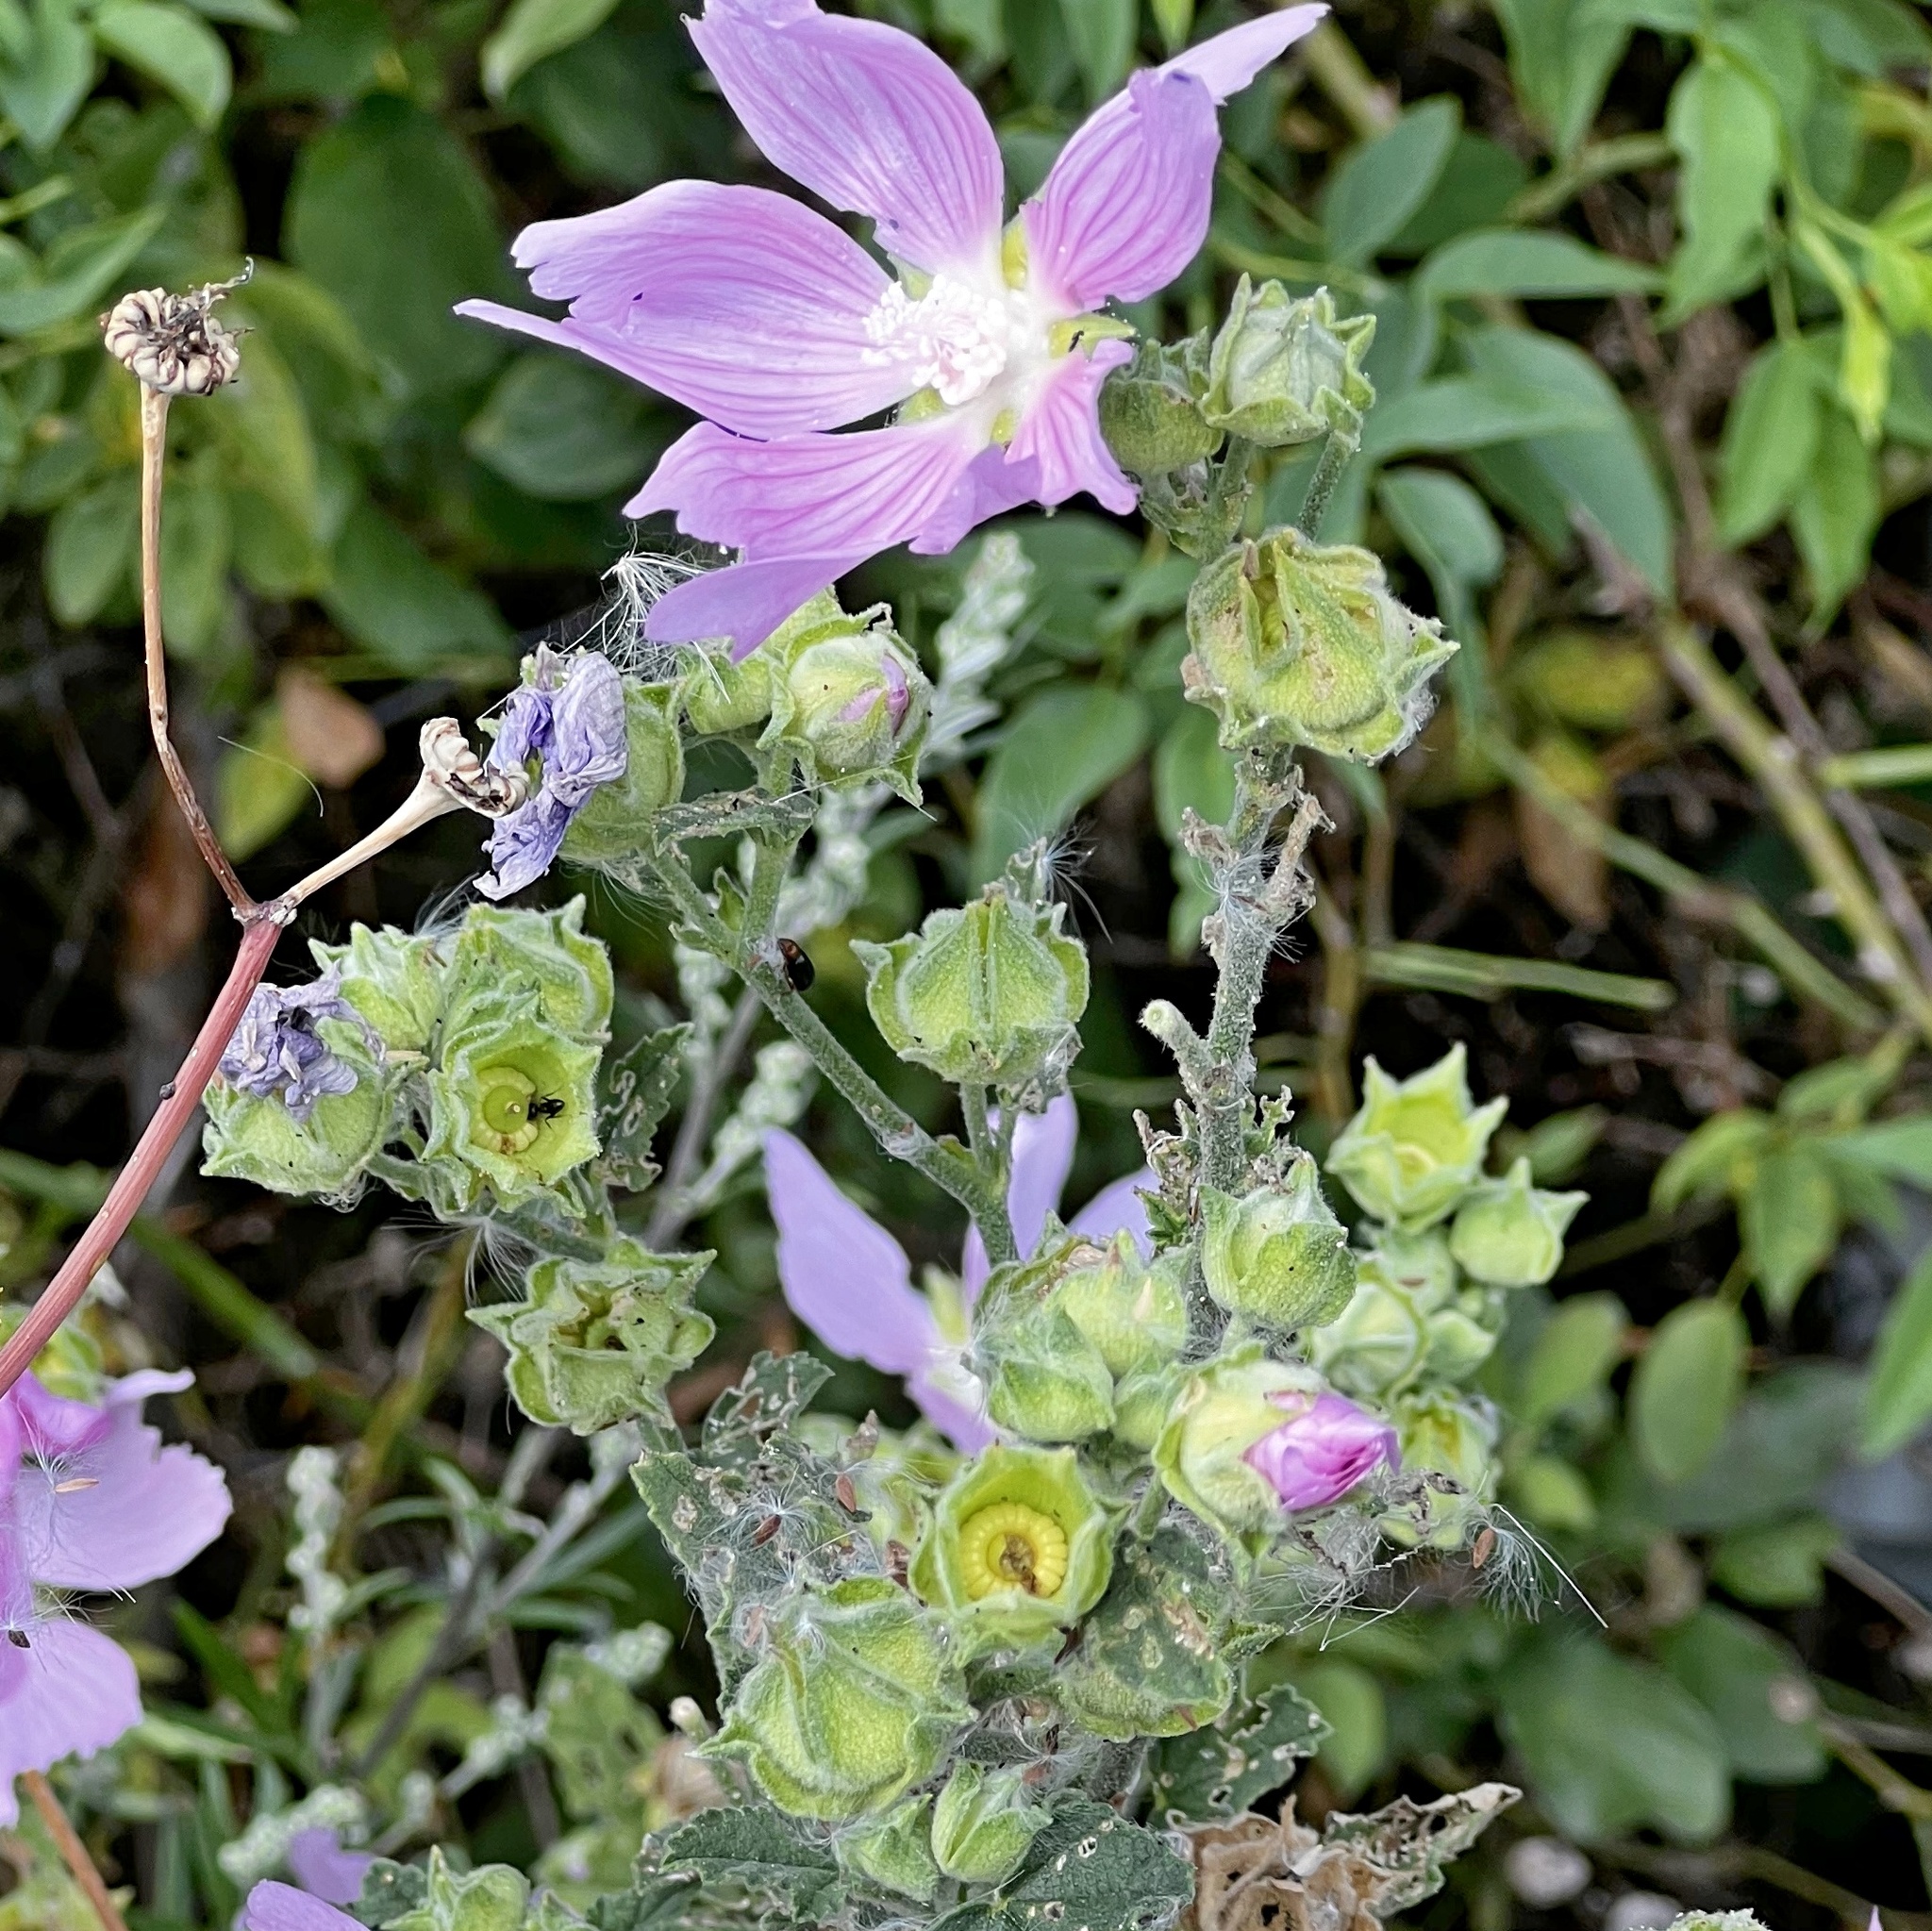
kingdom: Plantae
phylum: Tracheophyta
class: Magnoliopsida
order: Malvales
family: Malvaceae
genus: Malva
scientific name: Malva thuringiaca
